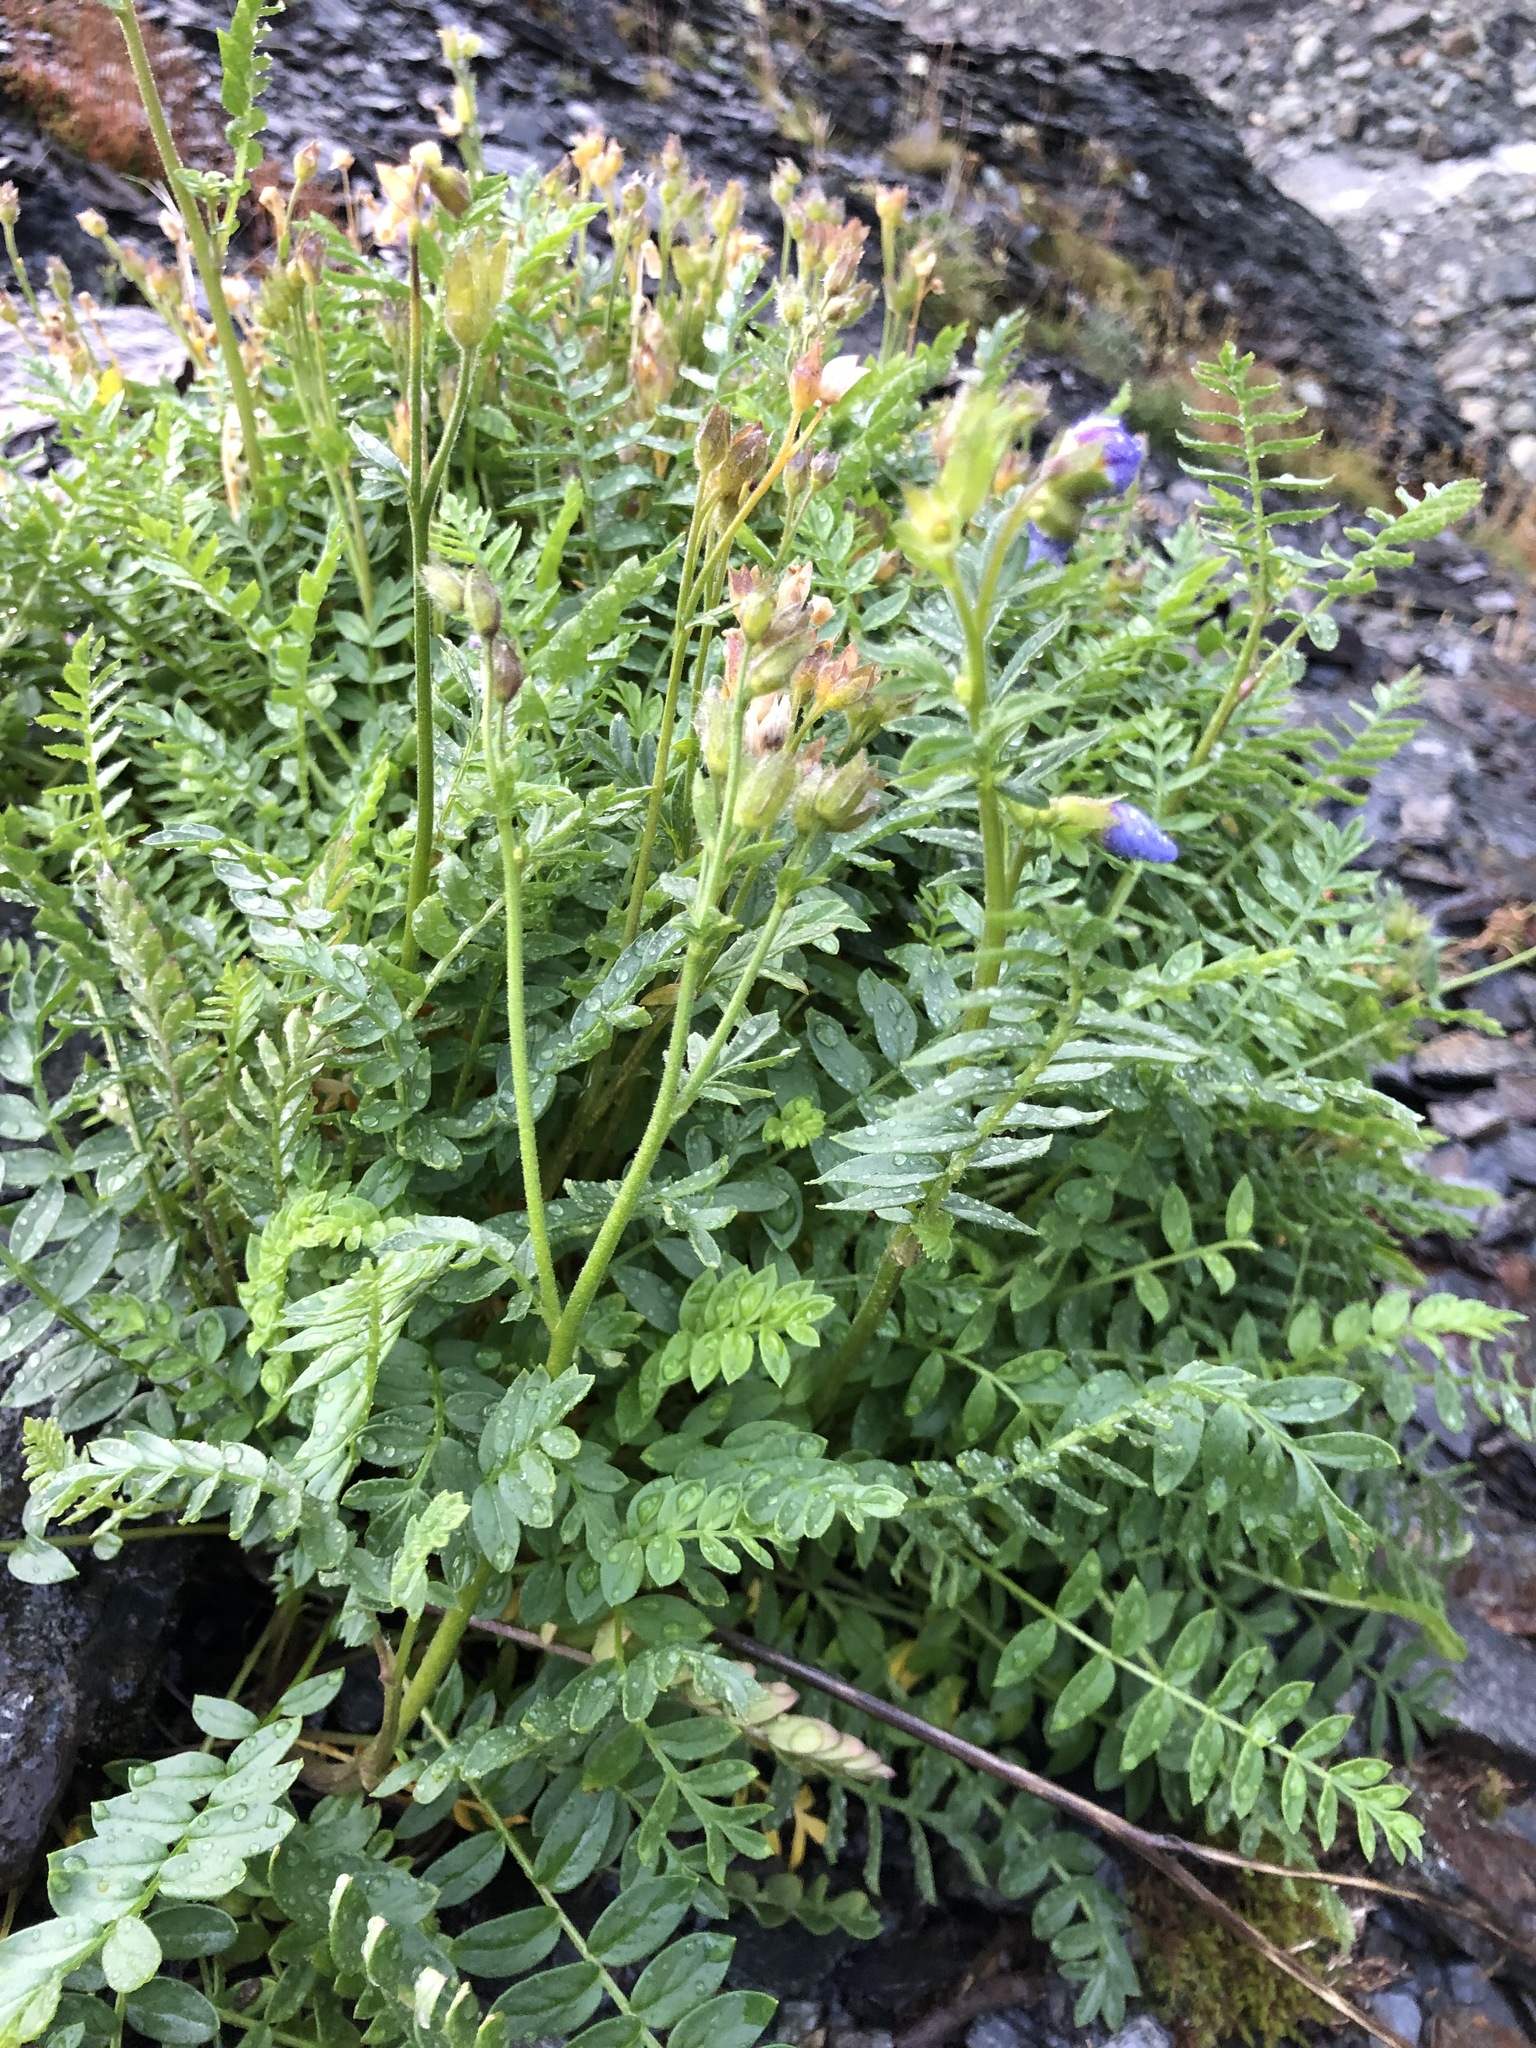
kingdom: Plantae
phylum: Tracheophyta
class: Magnoliopsida
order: Ericales
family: Polemoniaceae
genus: Polemonium
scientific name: Polemonium boreale
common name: Boreal jacob's-ladder
